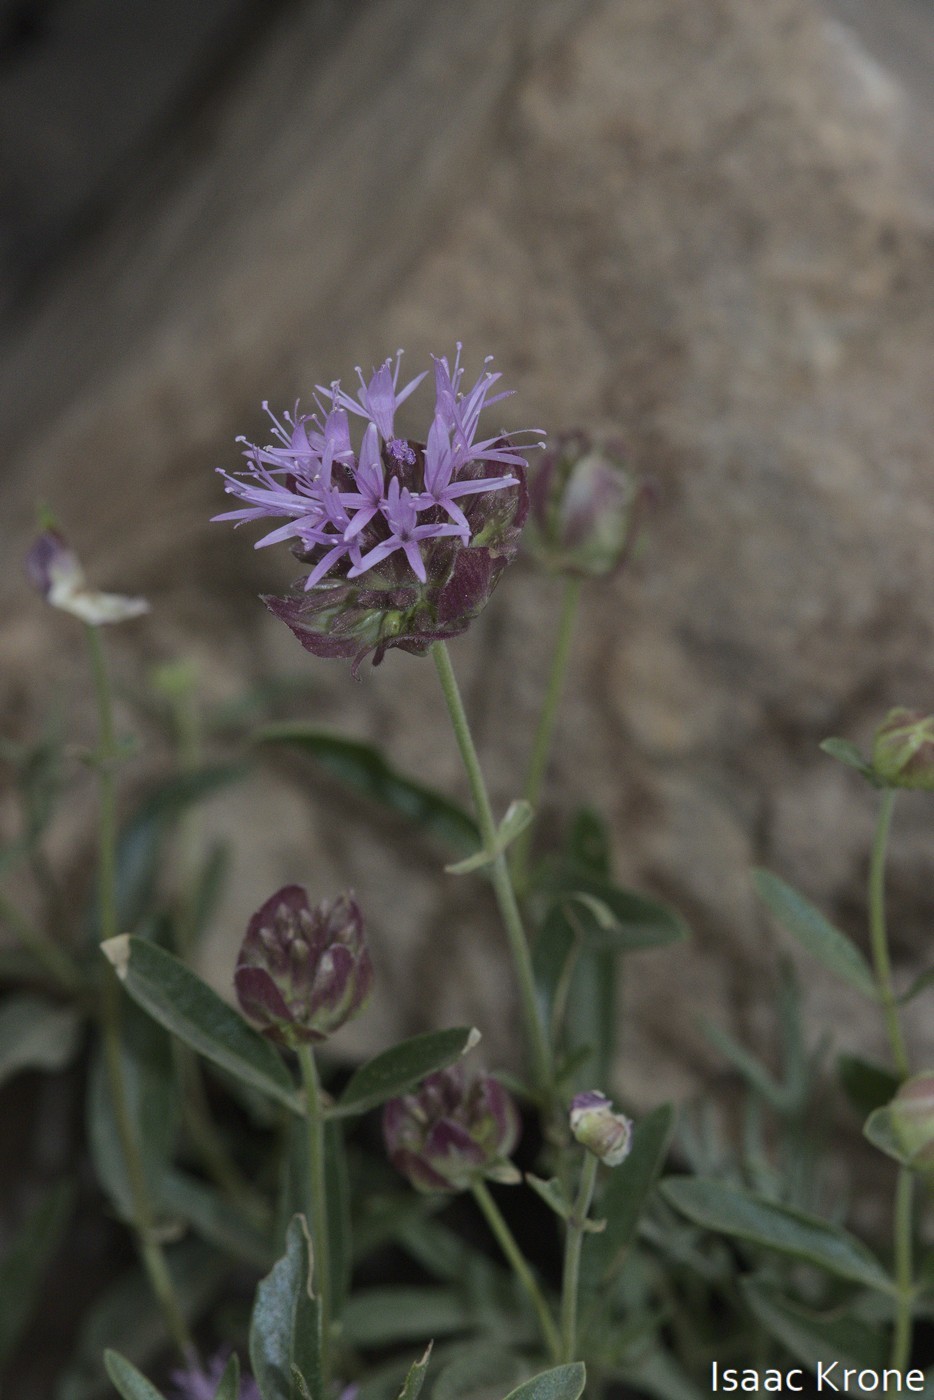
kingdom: Plantae
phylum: Tracheophyta
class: Magnoliopsida
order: Lamiales
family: Lamiaceae
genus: Monardella
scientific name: Monardella odoratissima
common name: Pacific monardella
